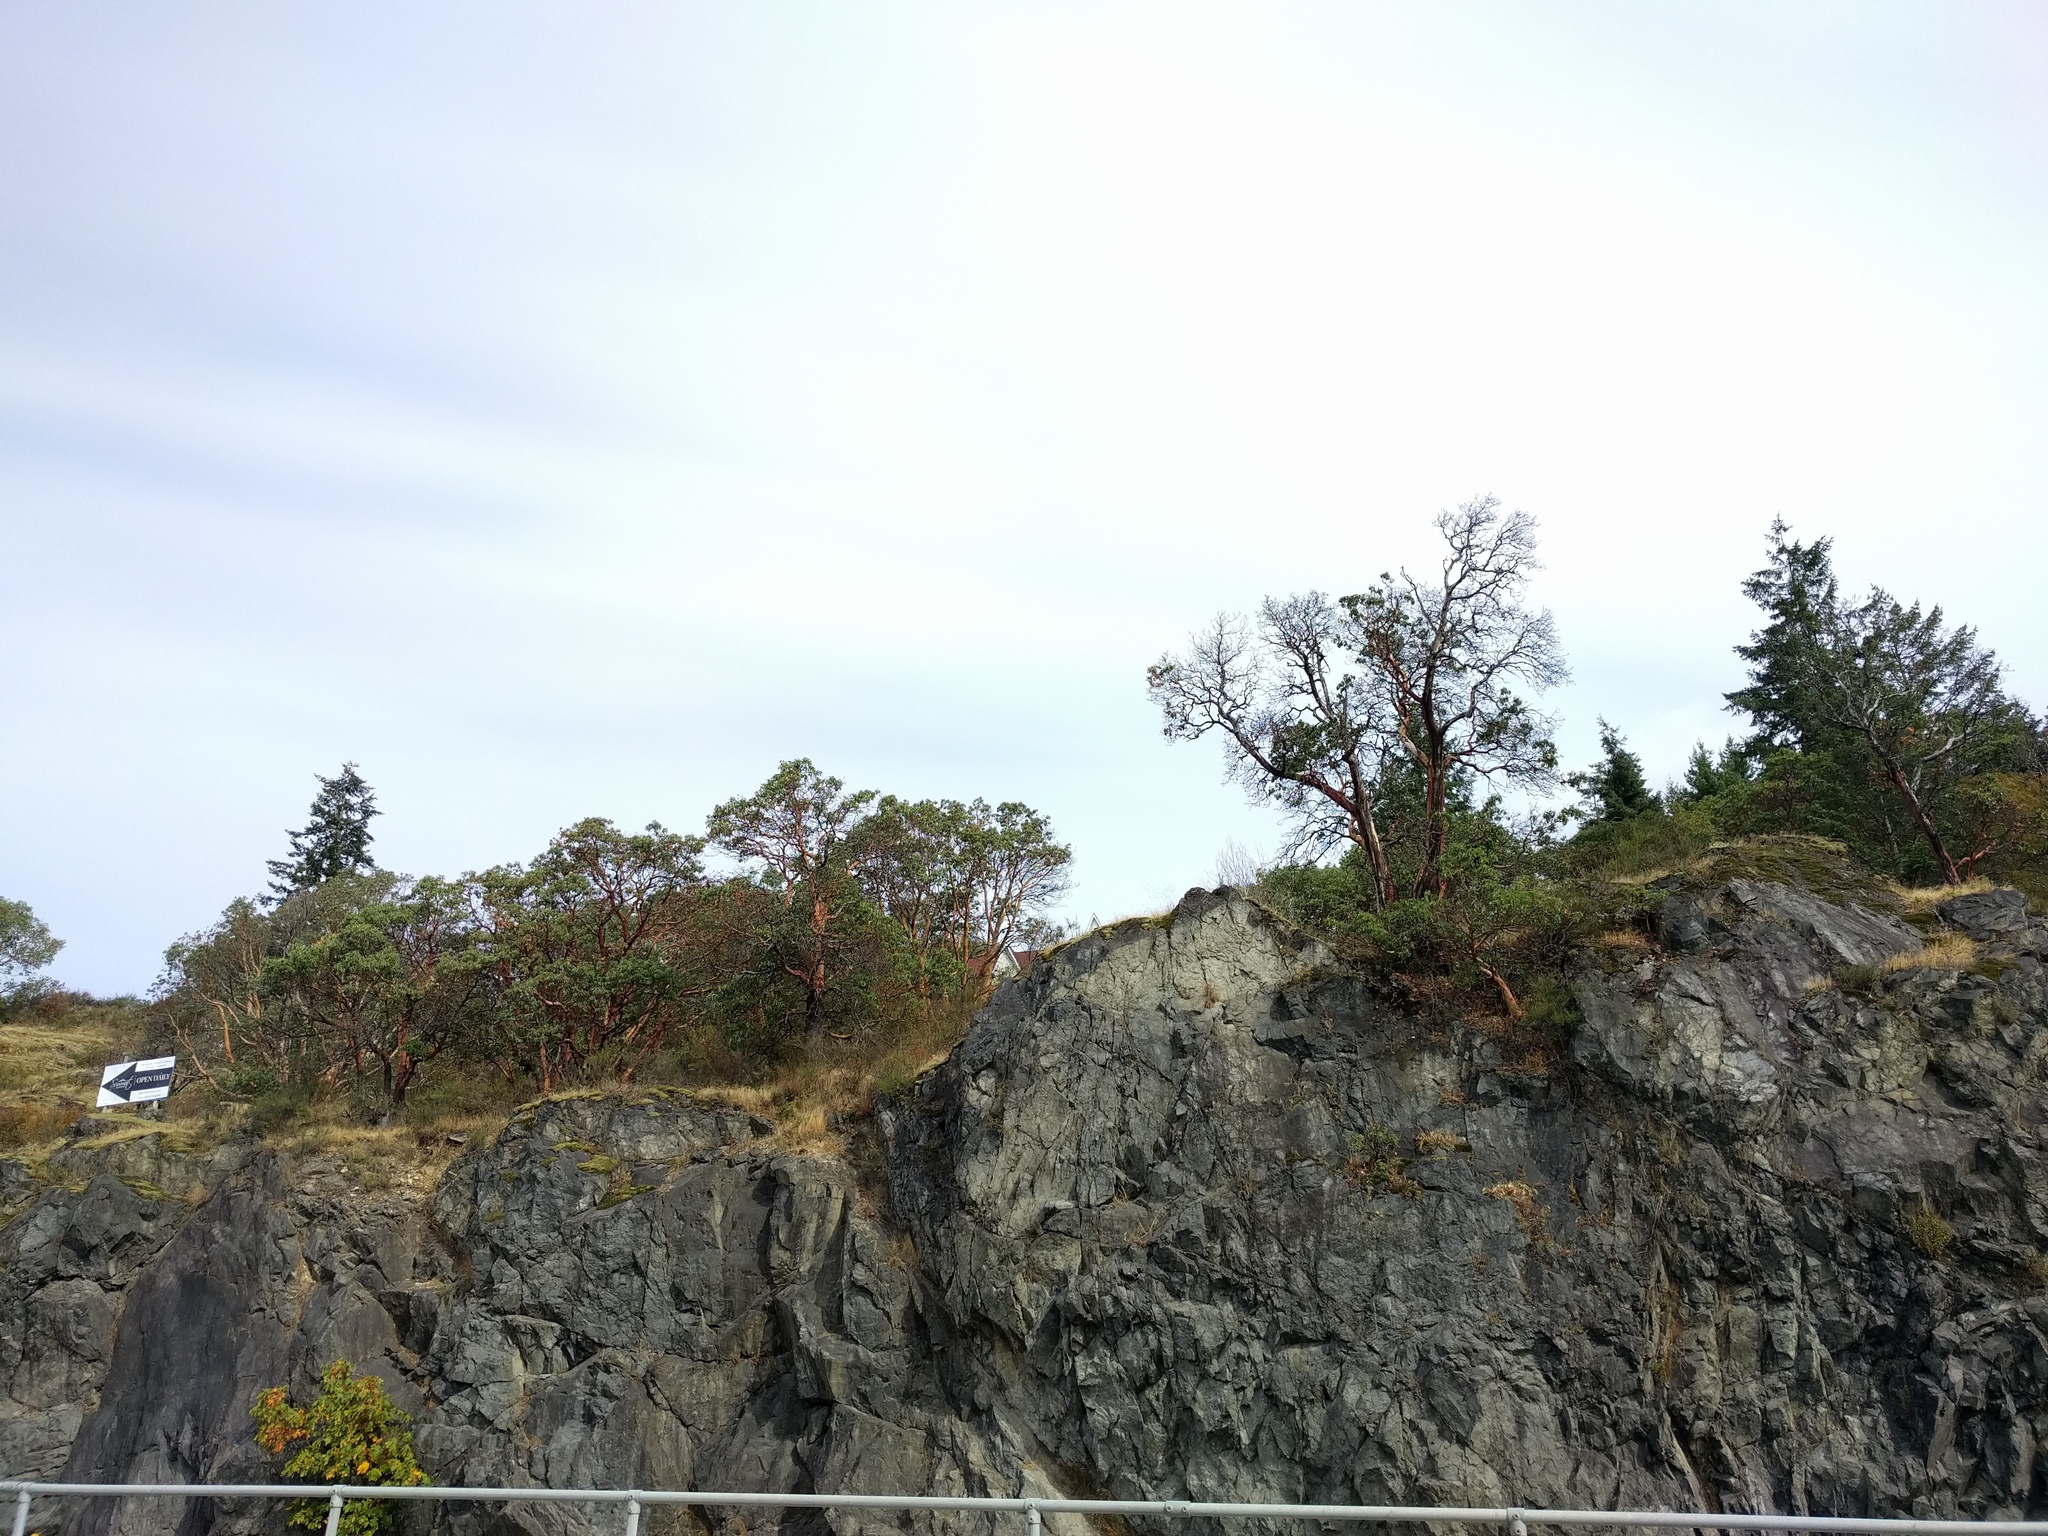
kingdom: Plantae
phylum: Tracheophyta
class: Magnoliopsida
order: Ericales
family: Ericaceae
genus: Arbutus
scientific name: Arbutus menziesii
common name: Pacific madrone
